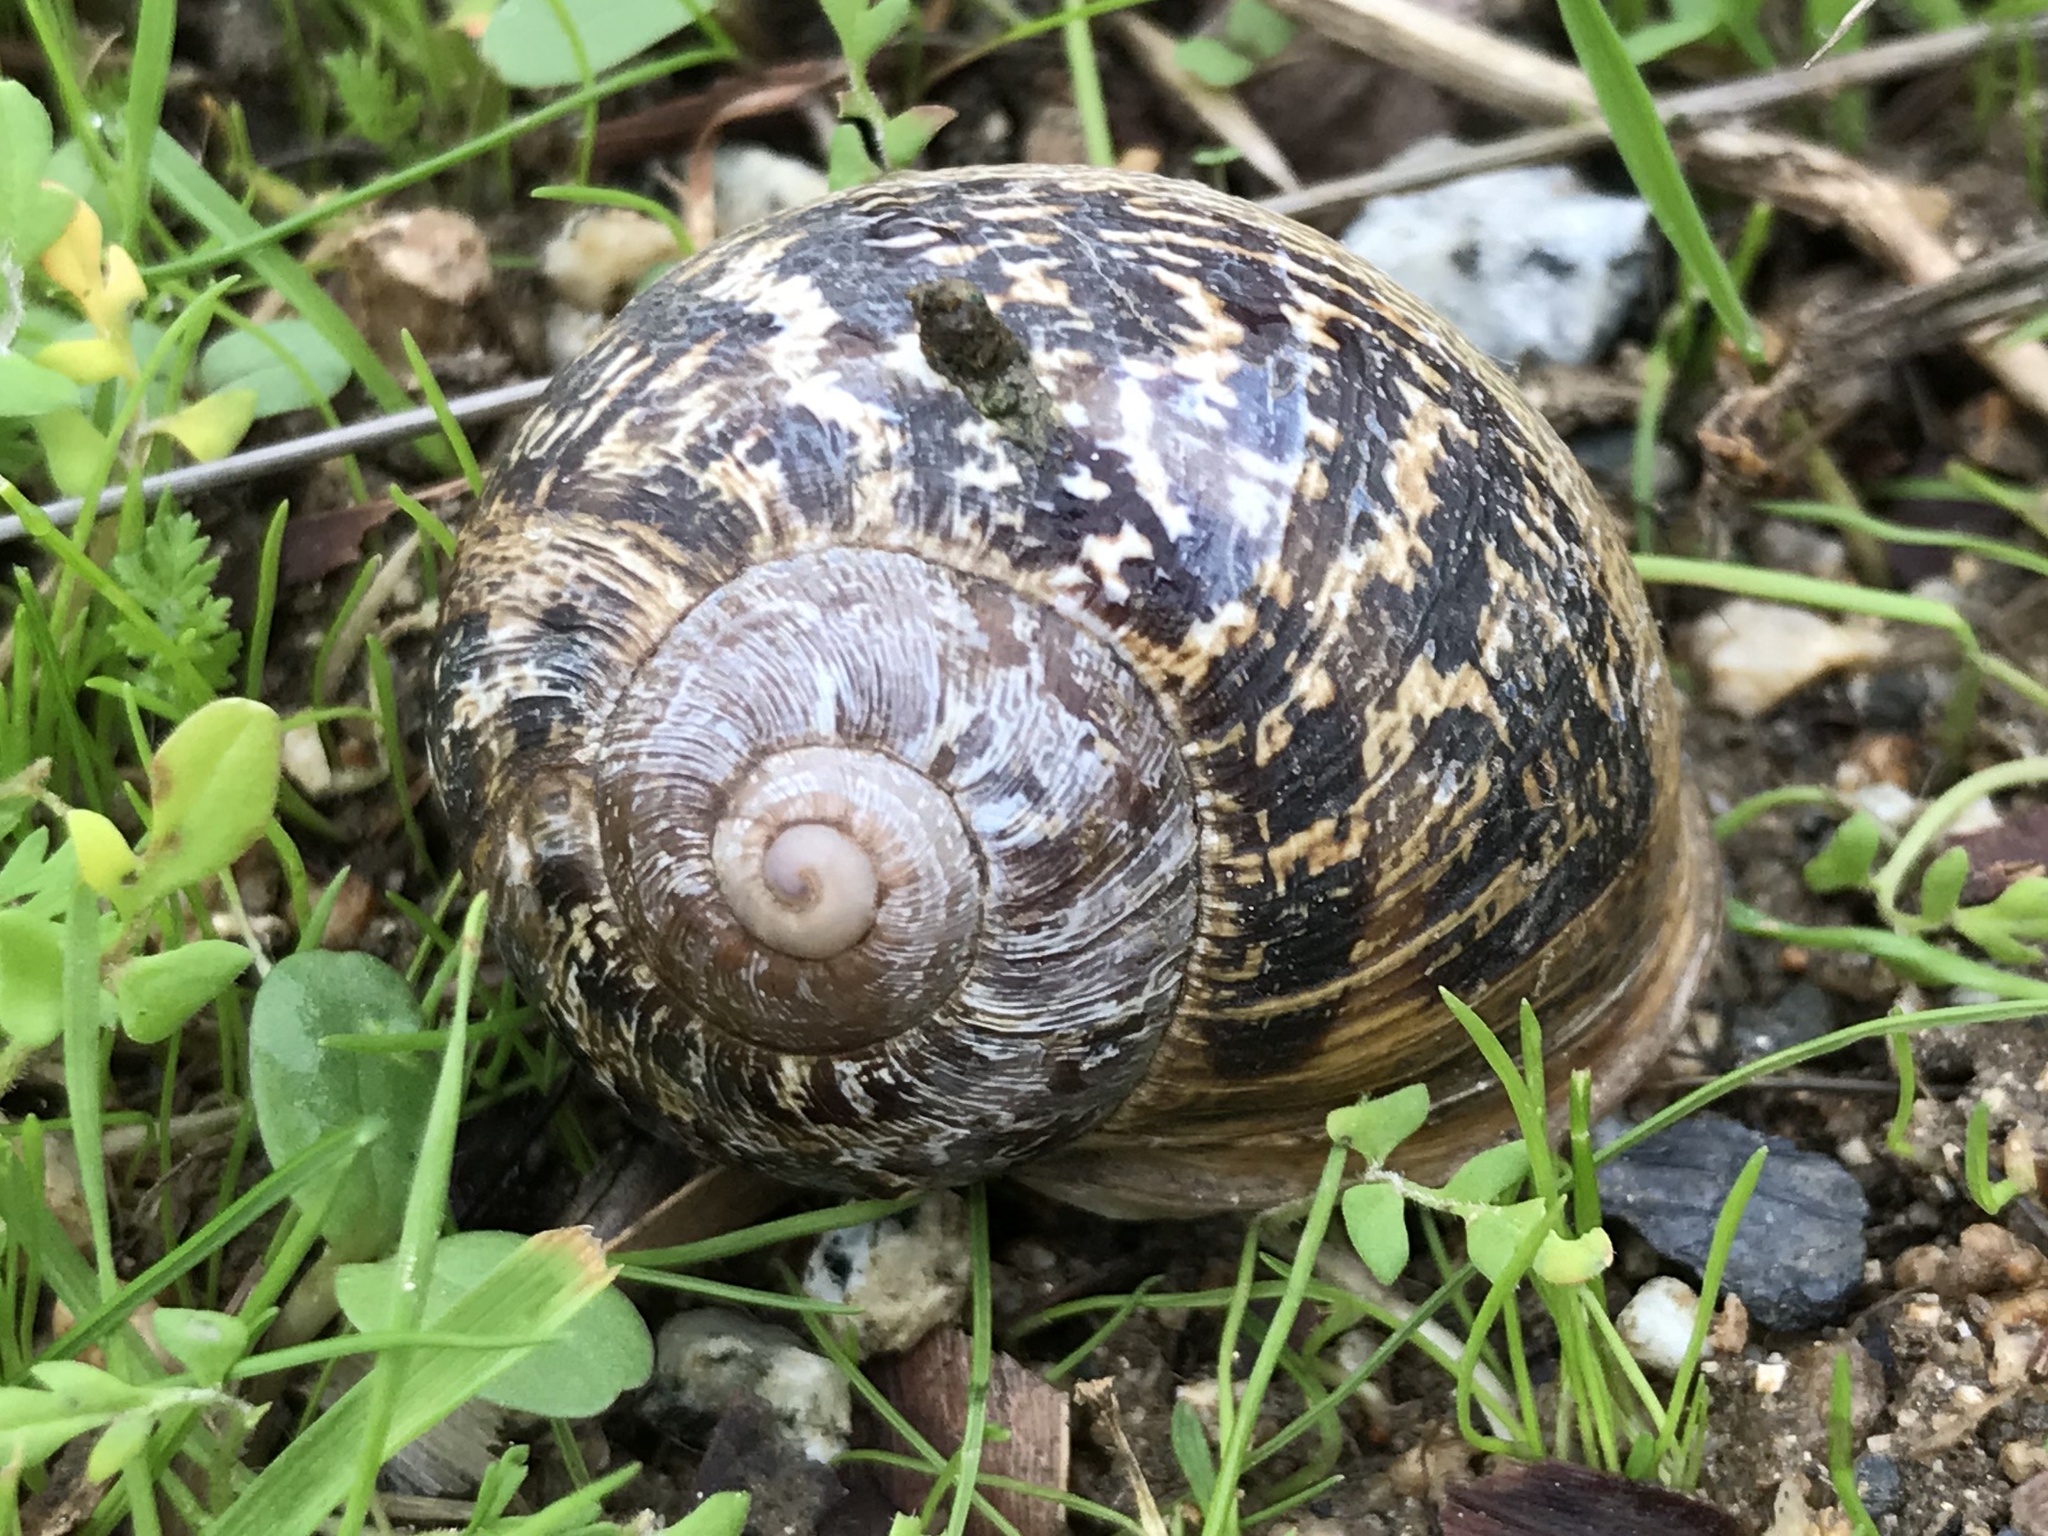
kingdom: Animalia
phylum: Mollusca
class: Gastropoda
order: Stylommatophora
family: Helicidae
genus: Cornu
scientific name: Cornu aspersum
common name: Brown garden snail
